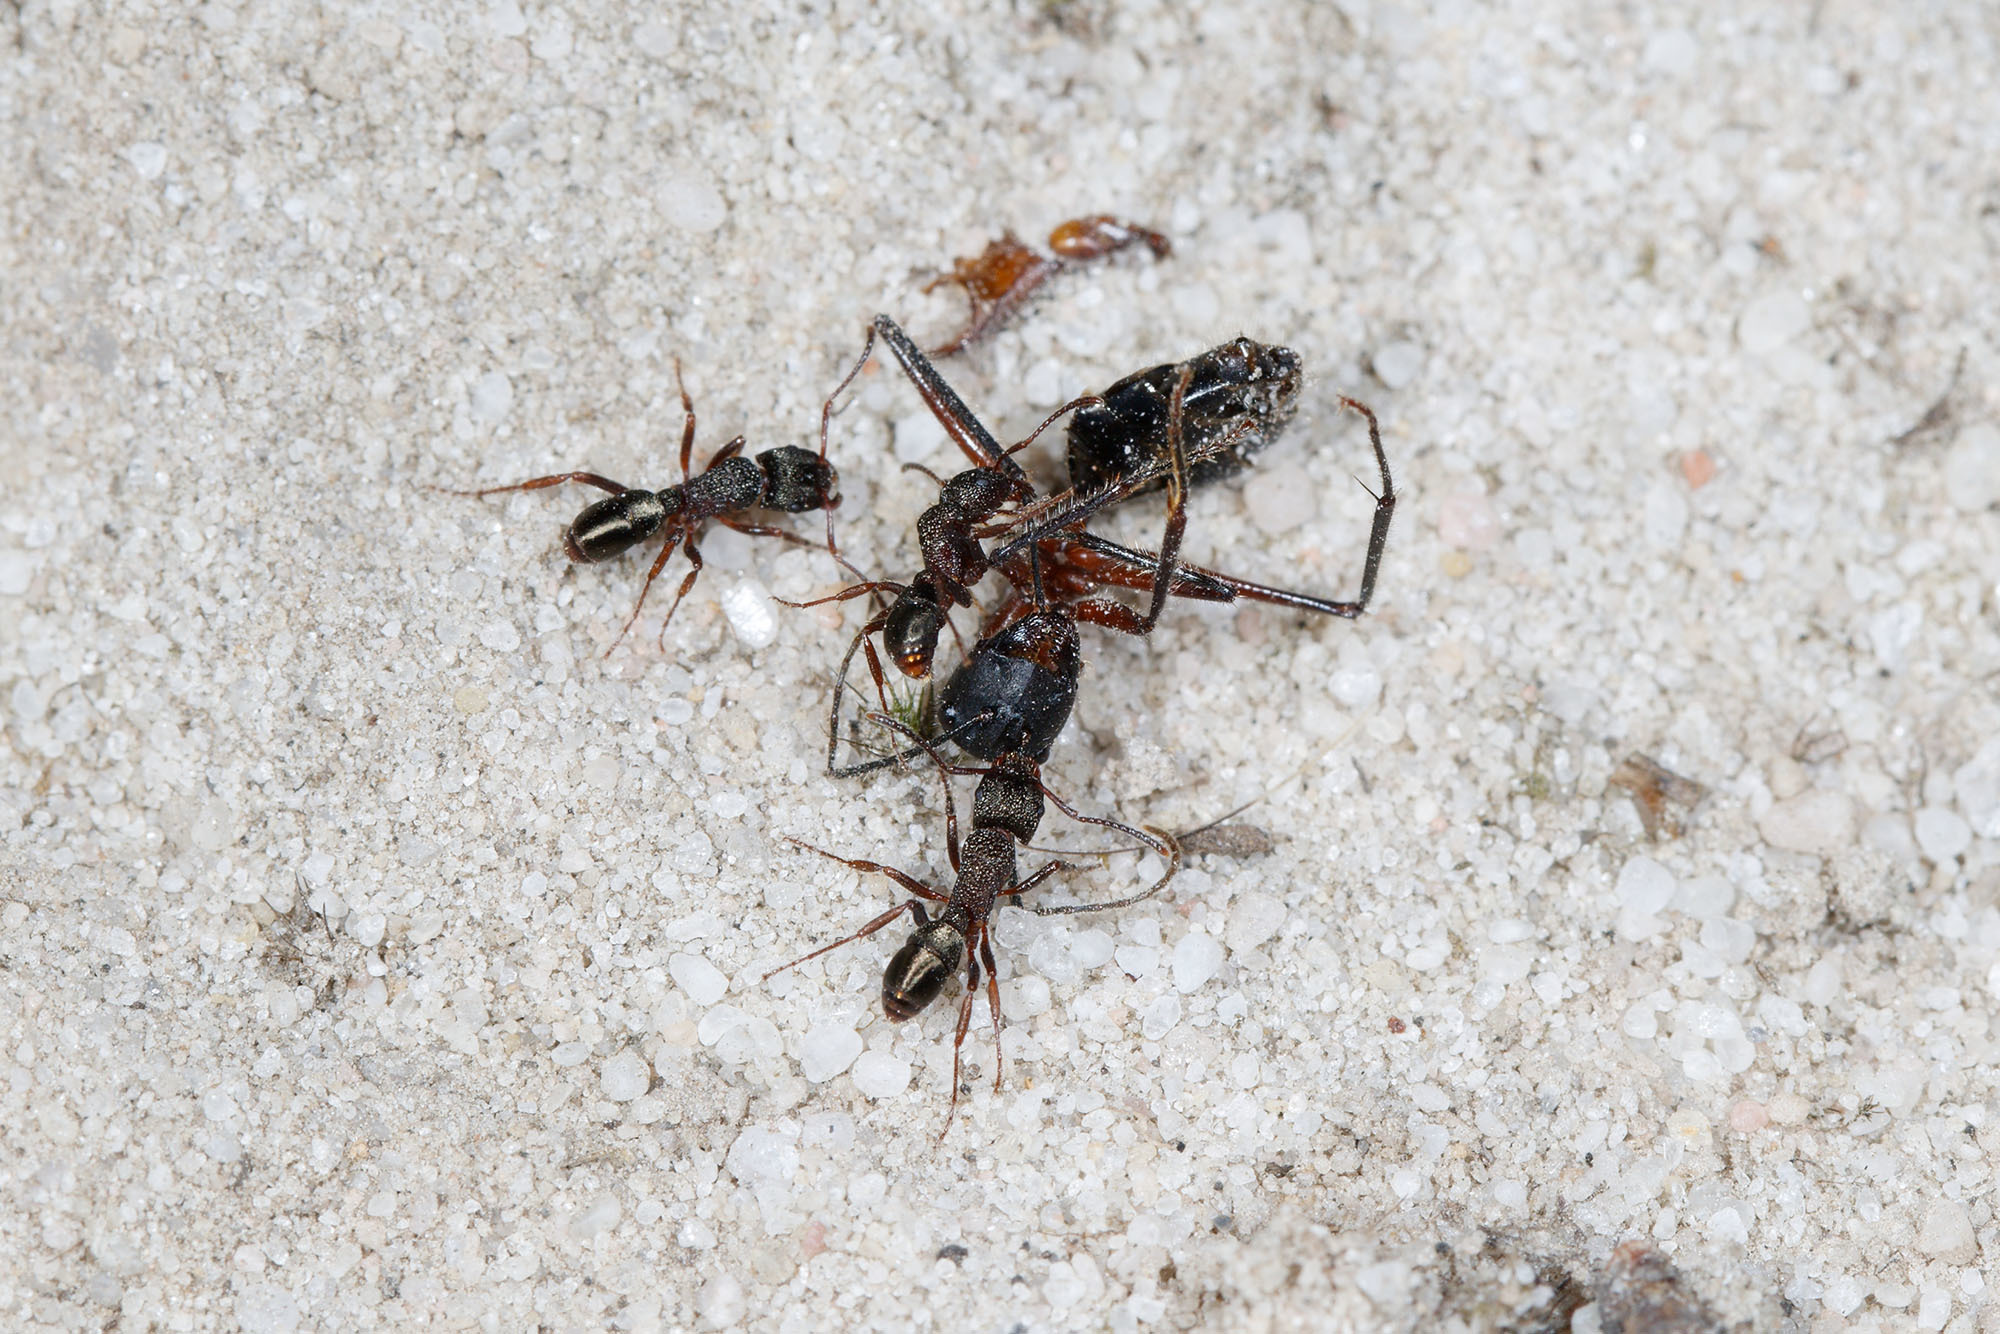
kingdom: Animalia
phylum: Arthropoda
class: Insecta
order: Hymenoptera
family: Formicidae
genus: Rhytidoponera
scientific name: Rhytidoponera tasmaniensis
